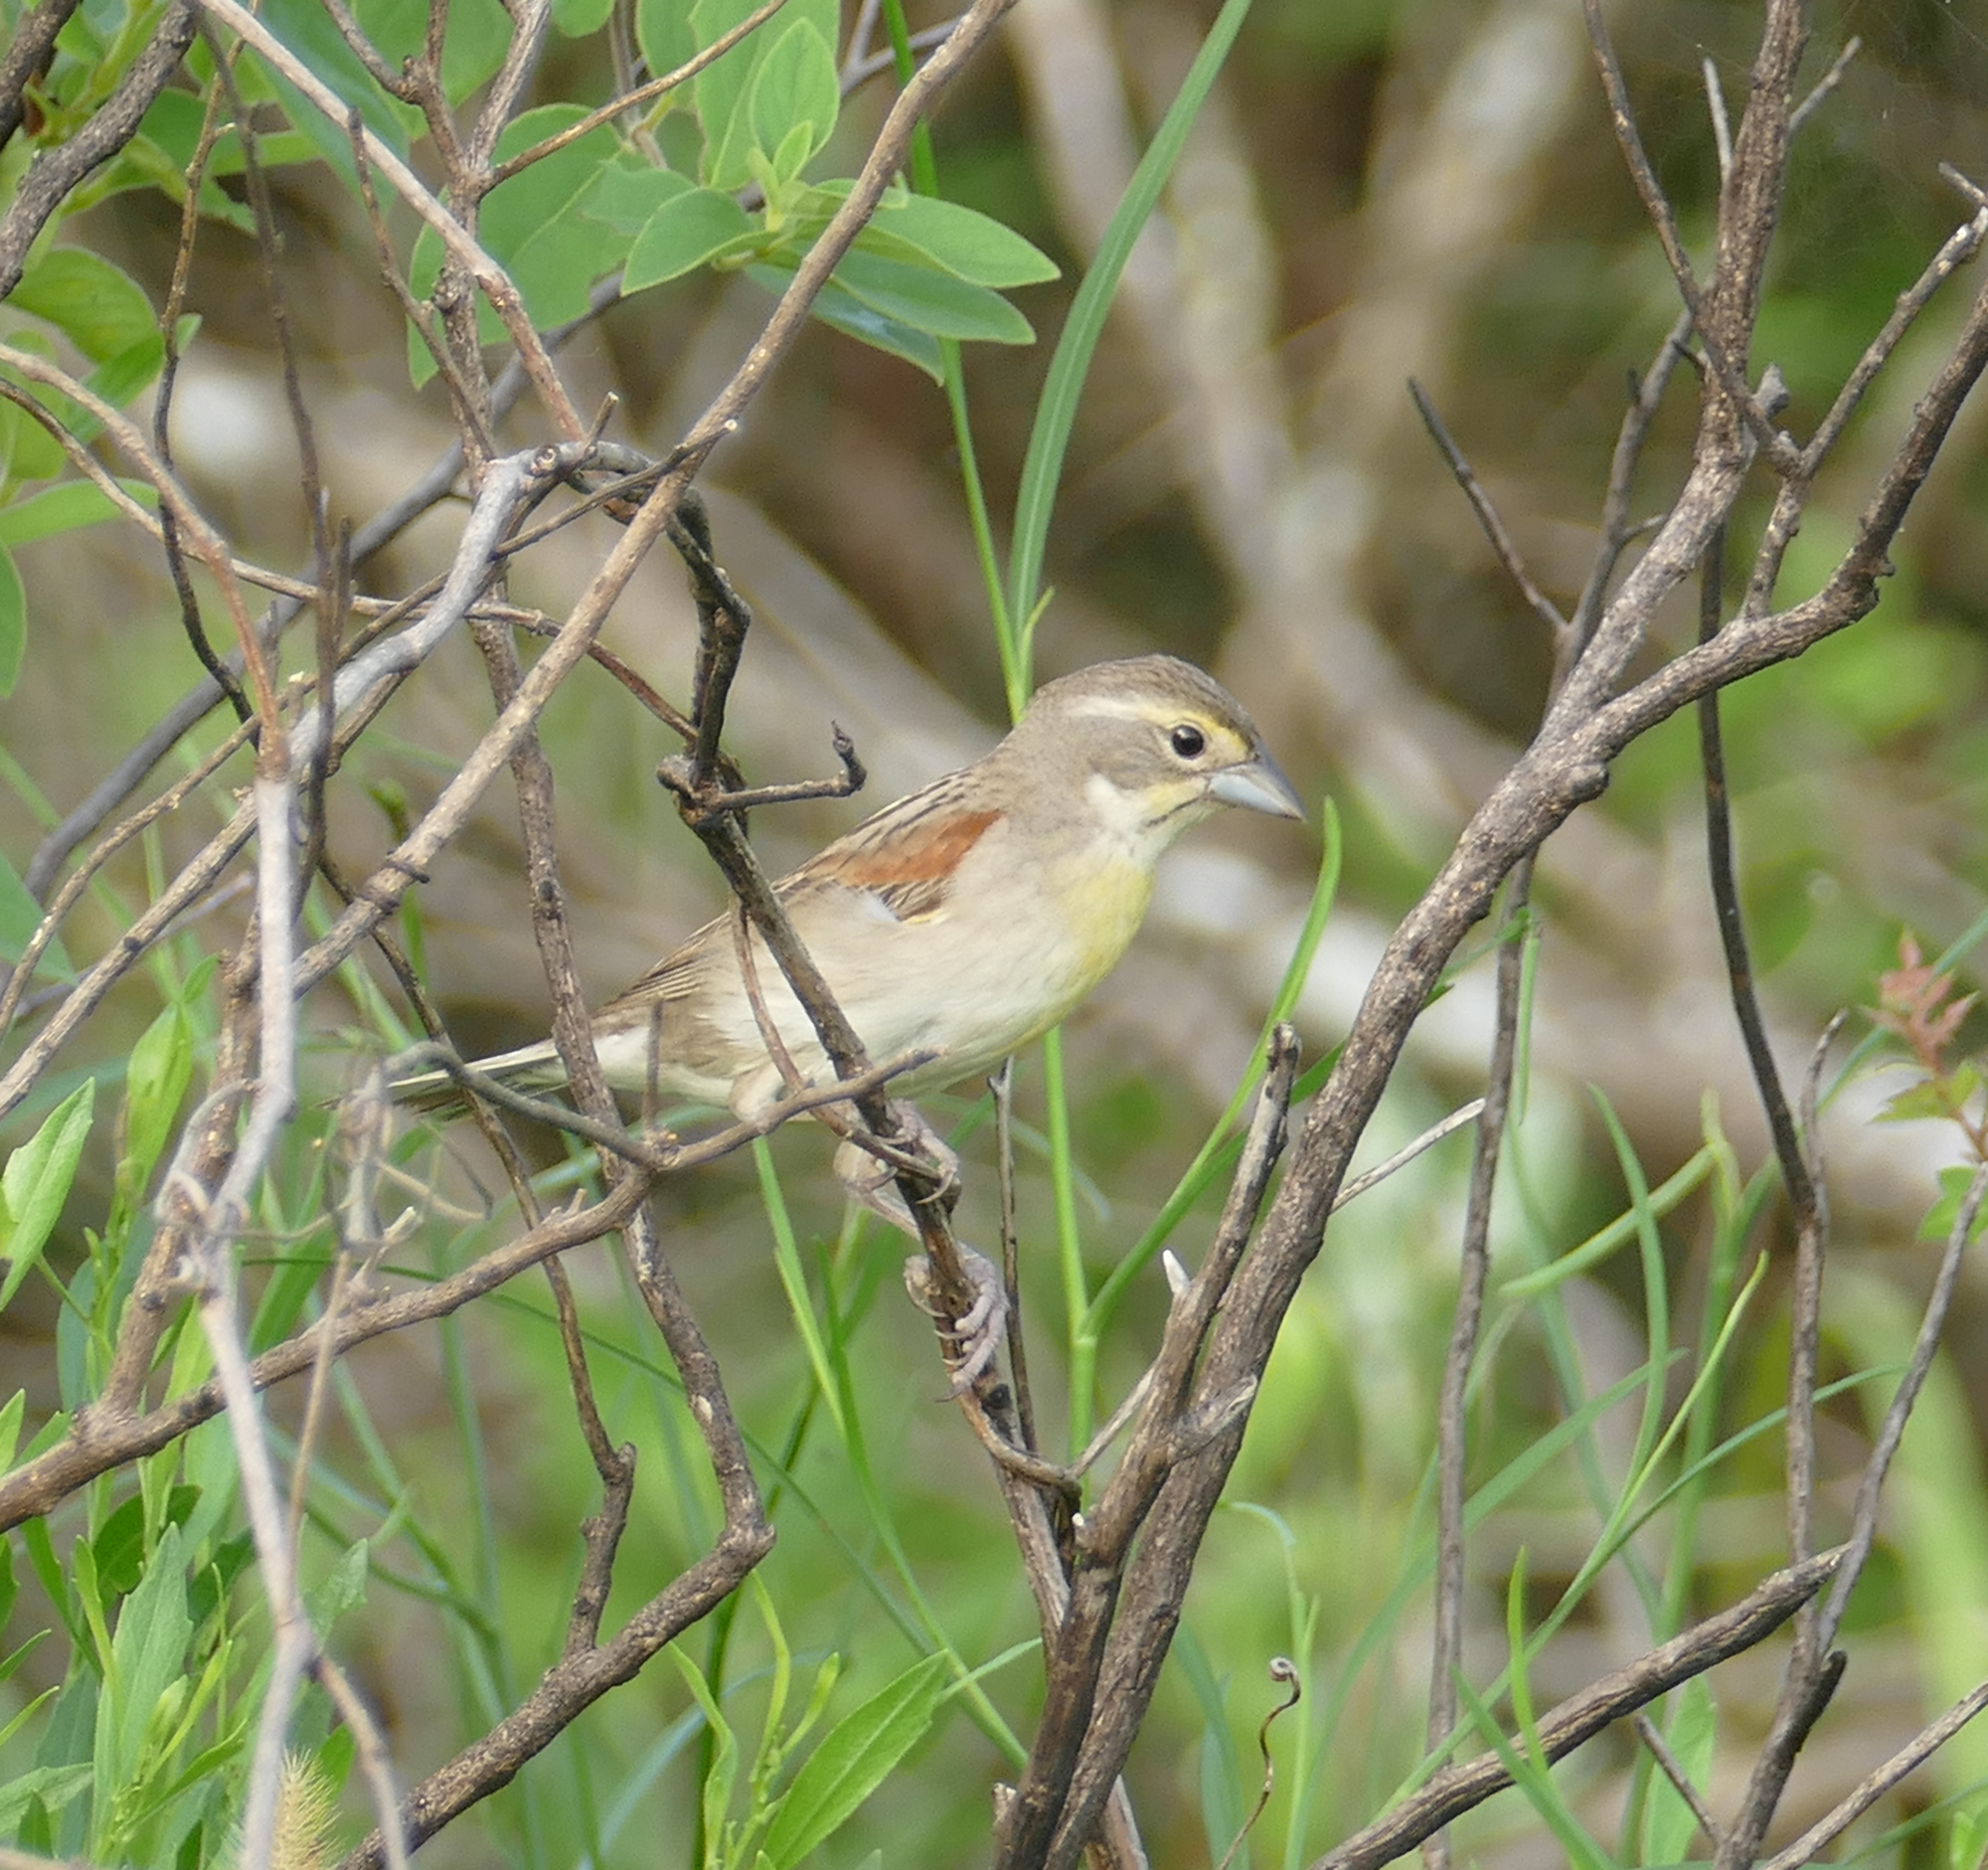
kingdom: Animalia
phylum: Chordata
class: Aves
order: Passeriformes
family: Cardinalidae
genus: Spiza
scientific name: Spiza americana
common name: Dickcissel
